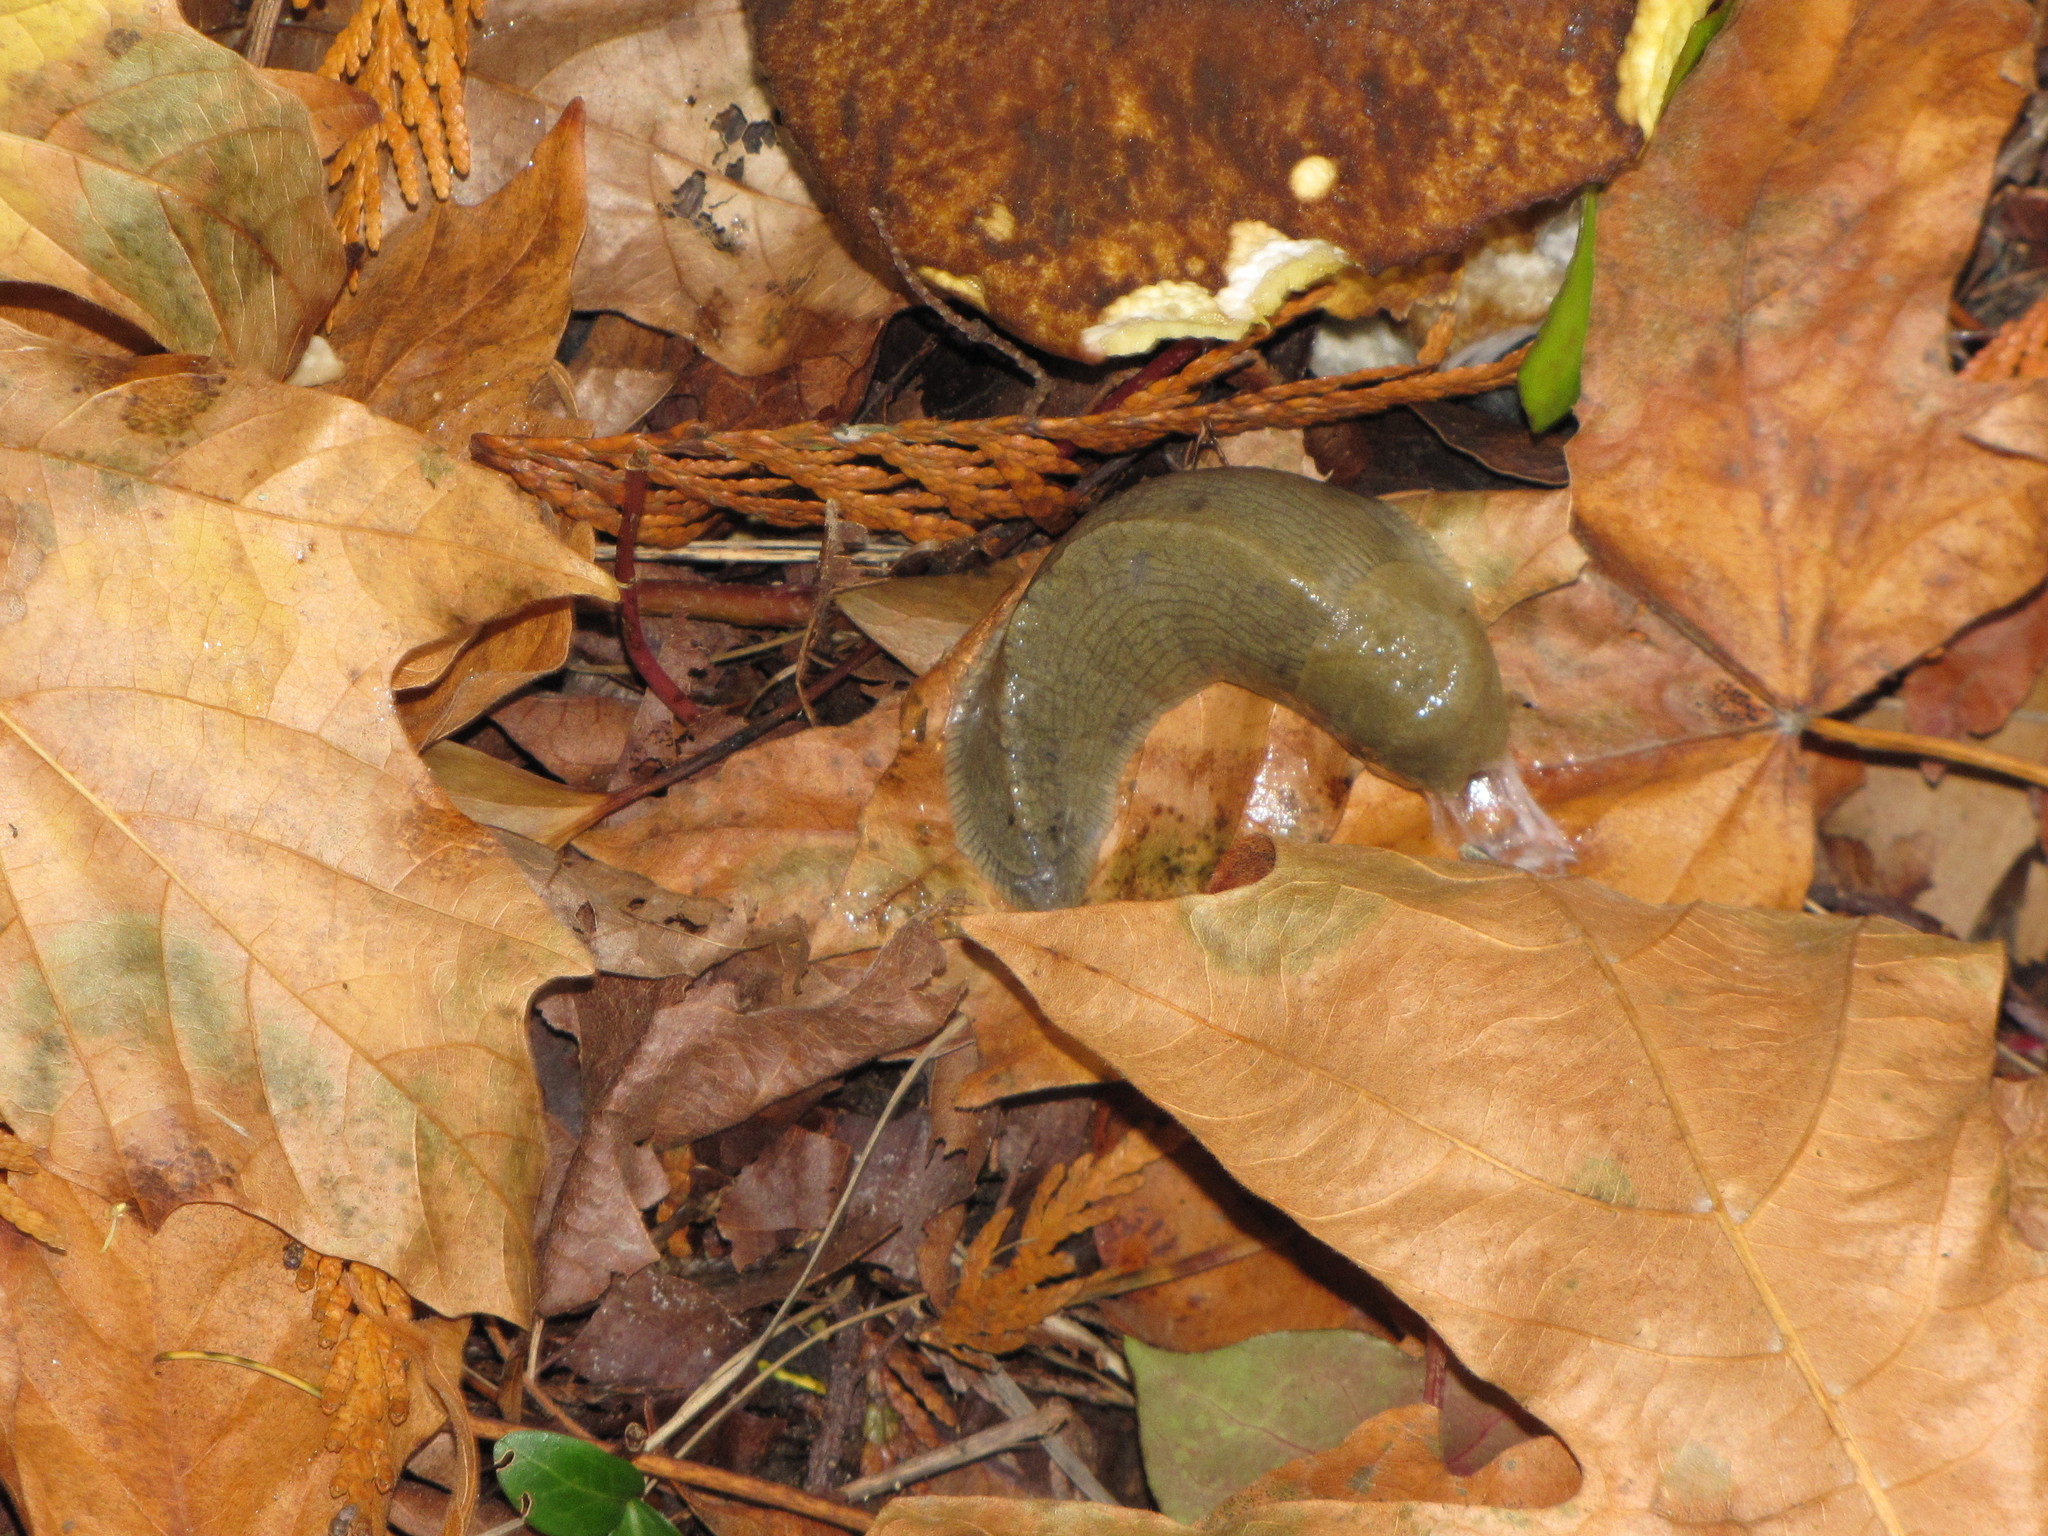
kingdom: Animalia
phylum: Mollusca
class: Gastropoda
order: Stylommatophora
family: Ariolimacidae
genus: Ariolimax
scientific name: Ariolimax columbianus
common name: Pacific banana slug
